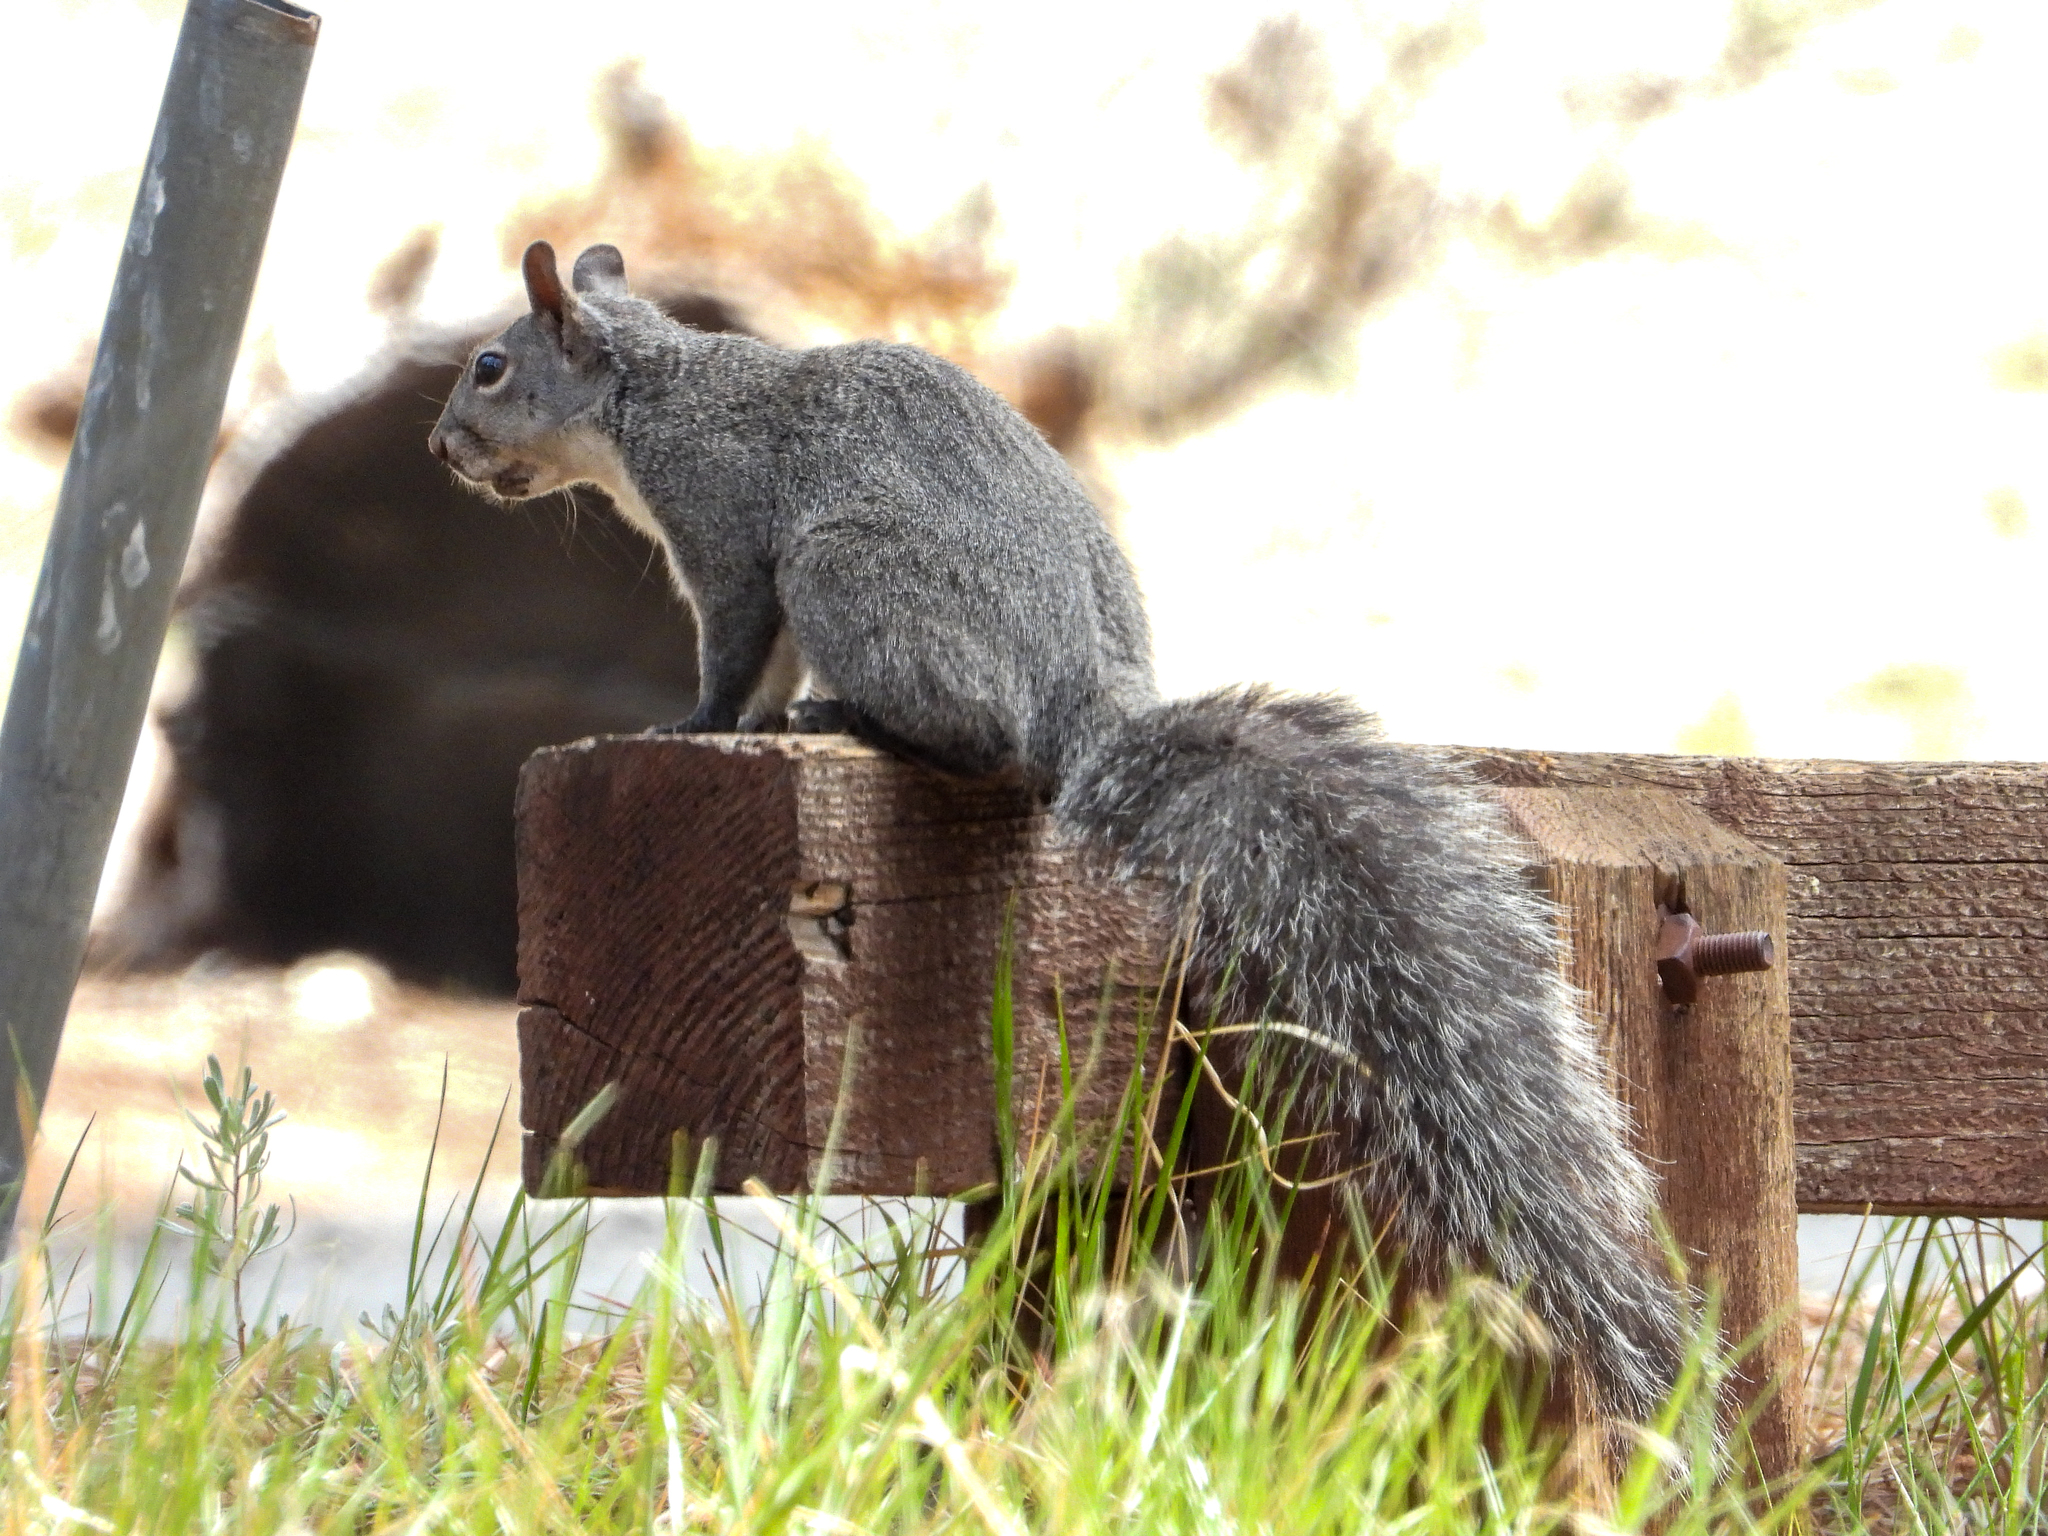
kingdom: Animalia
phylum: Chordata
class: Mammalia
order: Rodentia
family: Sciuridae
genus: Sciurus
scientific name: Sciurus griseus
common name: Western gray squirrel
